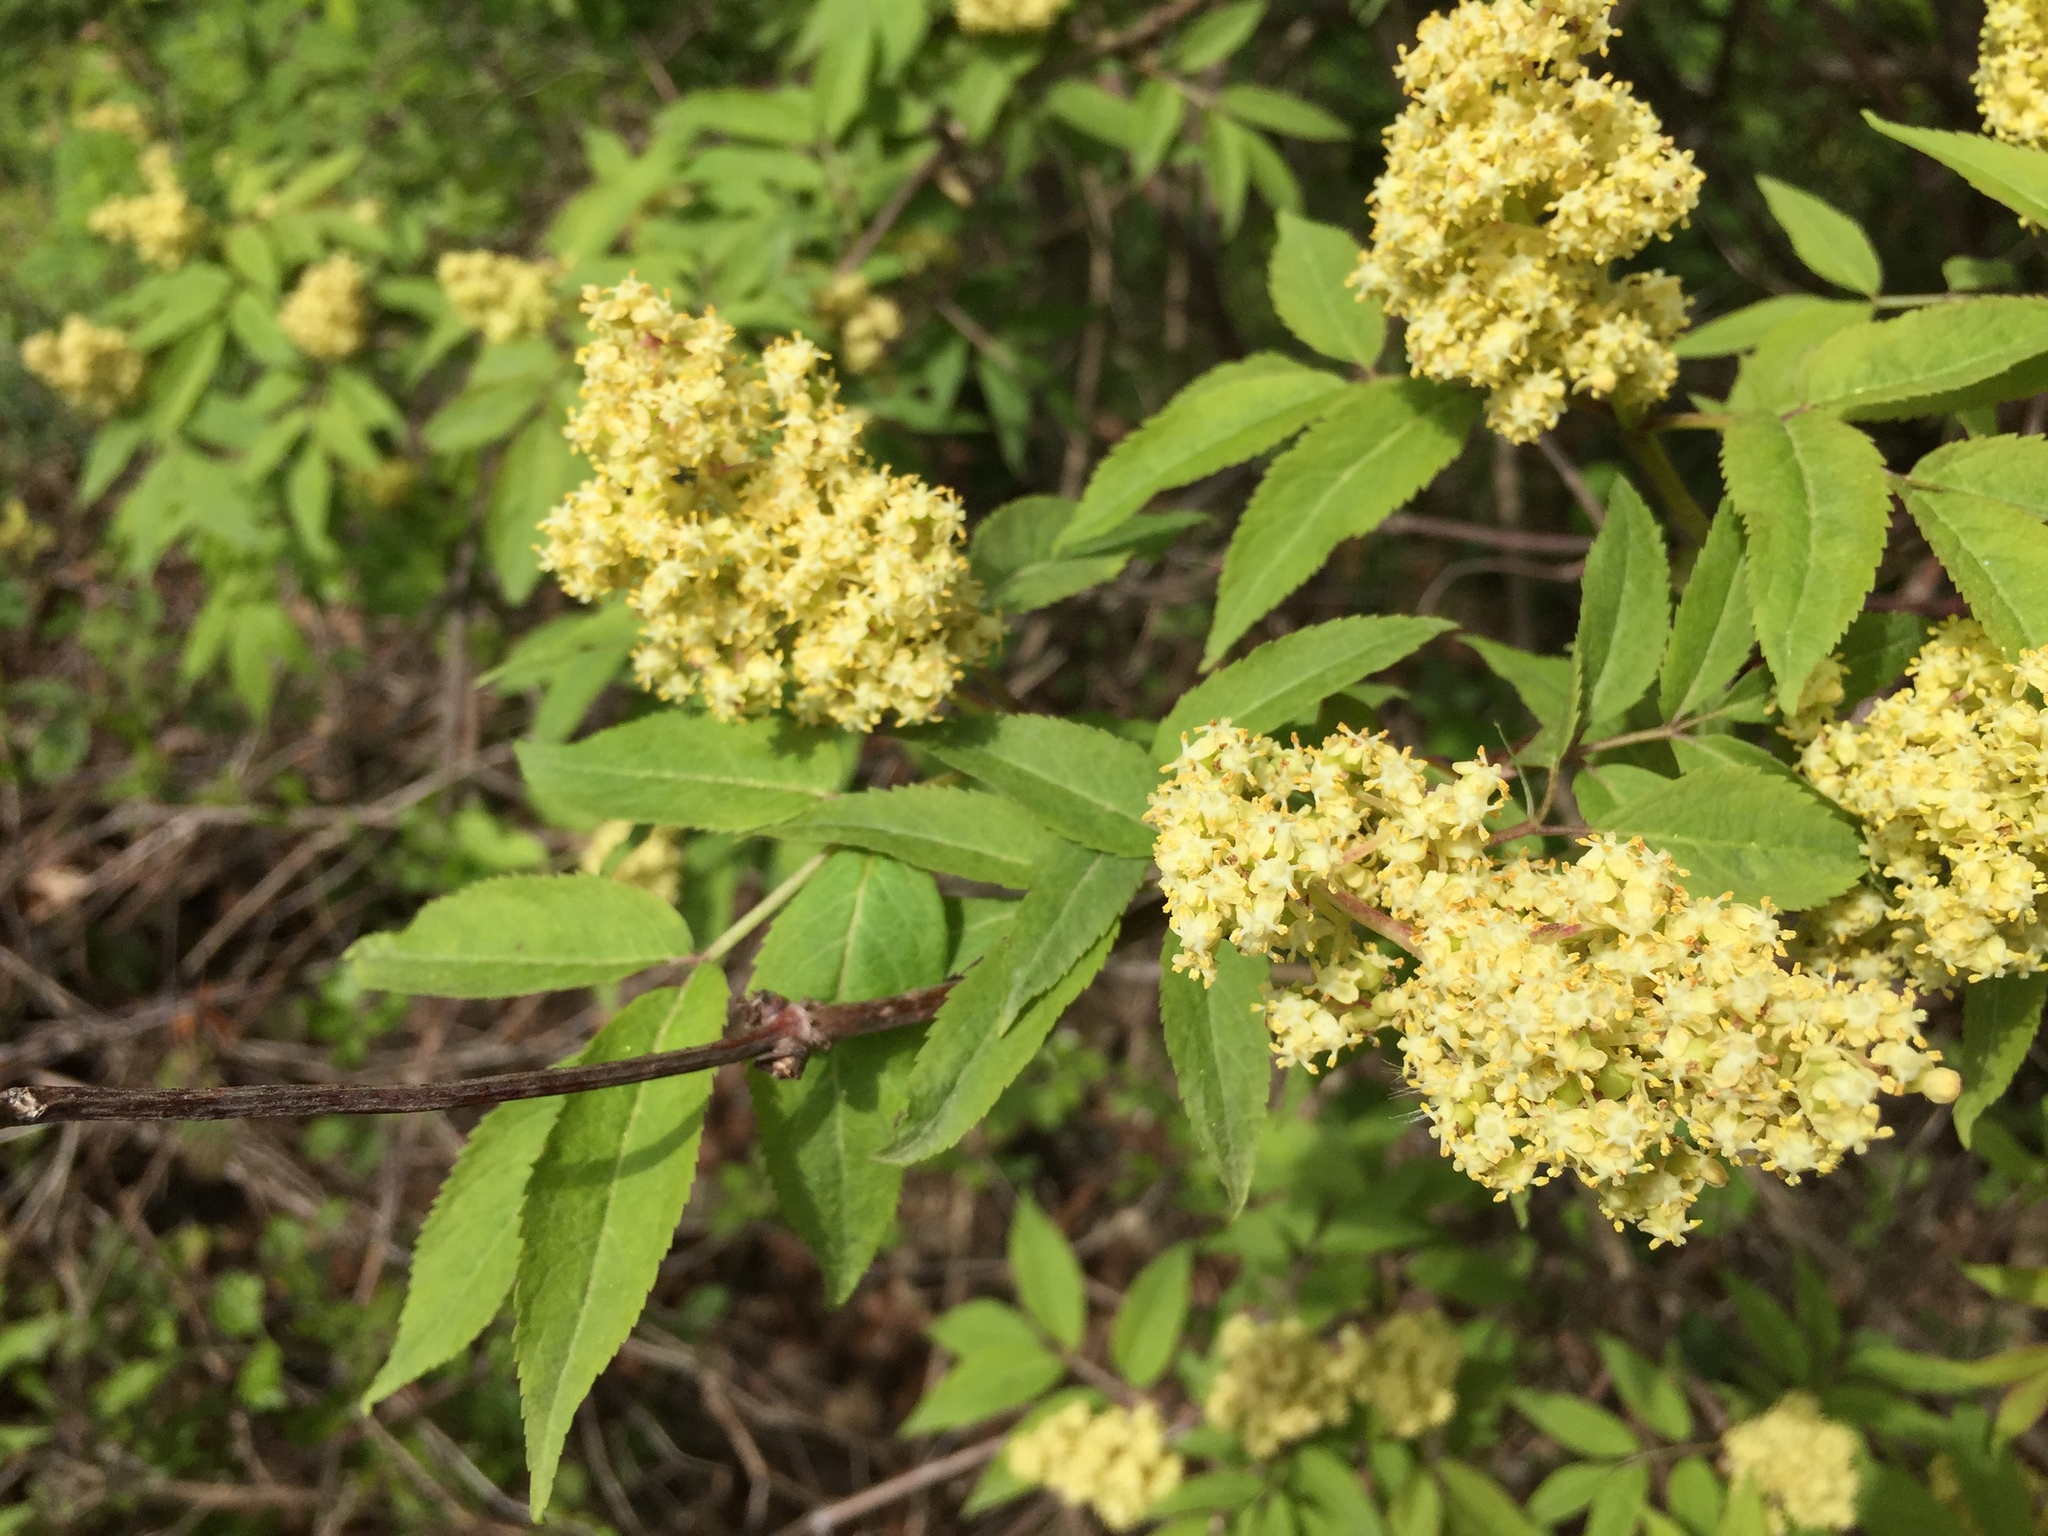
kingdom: Plantae
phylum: Tracheophyta
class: Magnoliopsida
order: Dipsacales
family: Viburnaceae
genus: Sambucus
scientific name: Sambucus racemosa
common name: Red-berried elder
